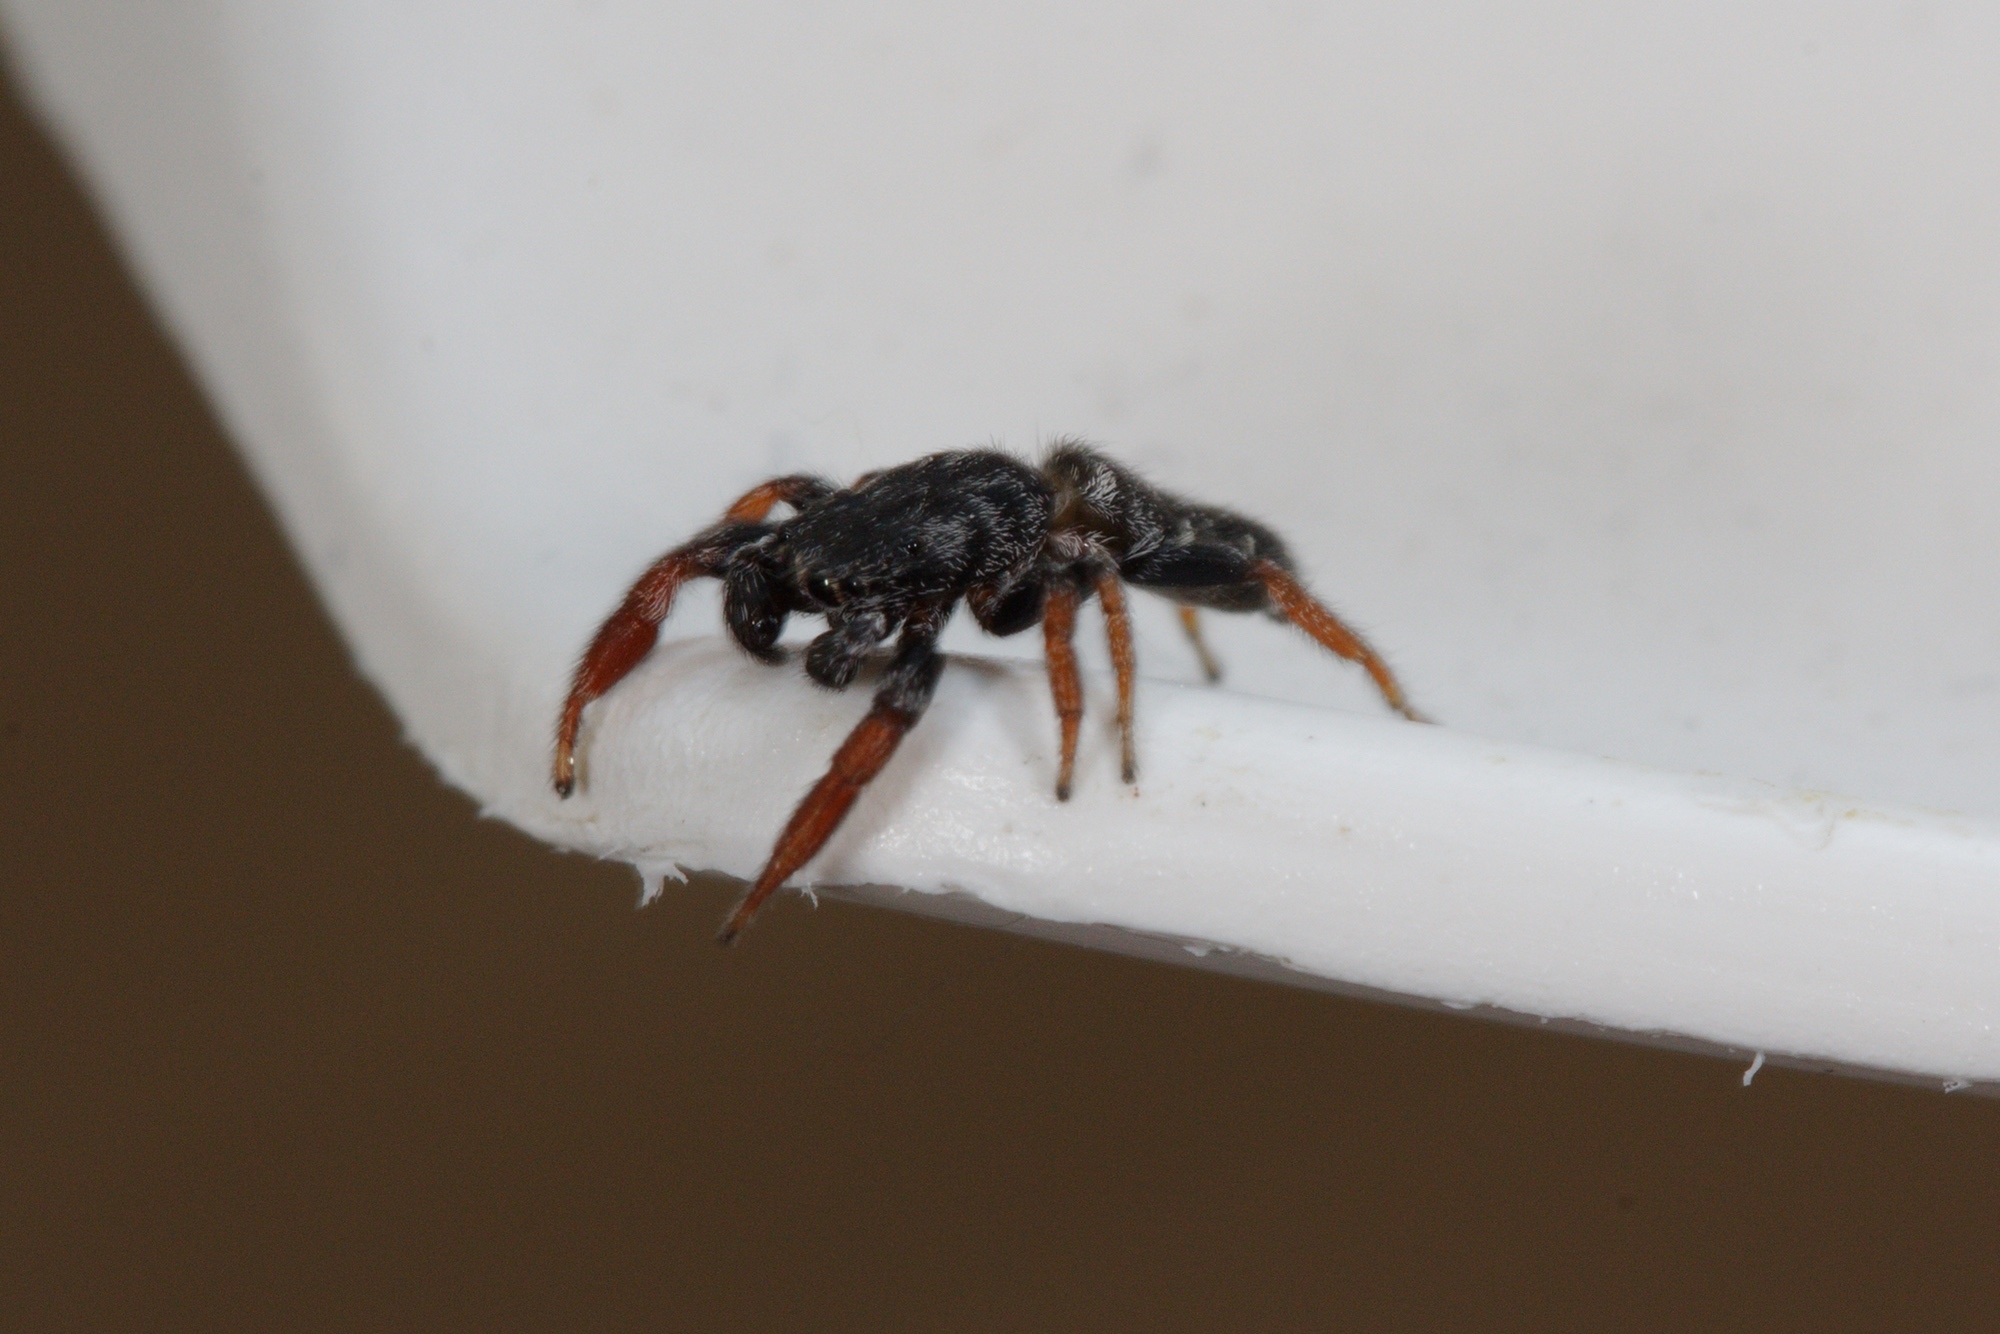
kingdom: Animalia
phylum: Arthropoda
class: Arachnida
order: Araneae
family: Salticidae
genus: Holoplatys
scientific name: Holoplatys invenusta
